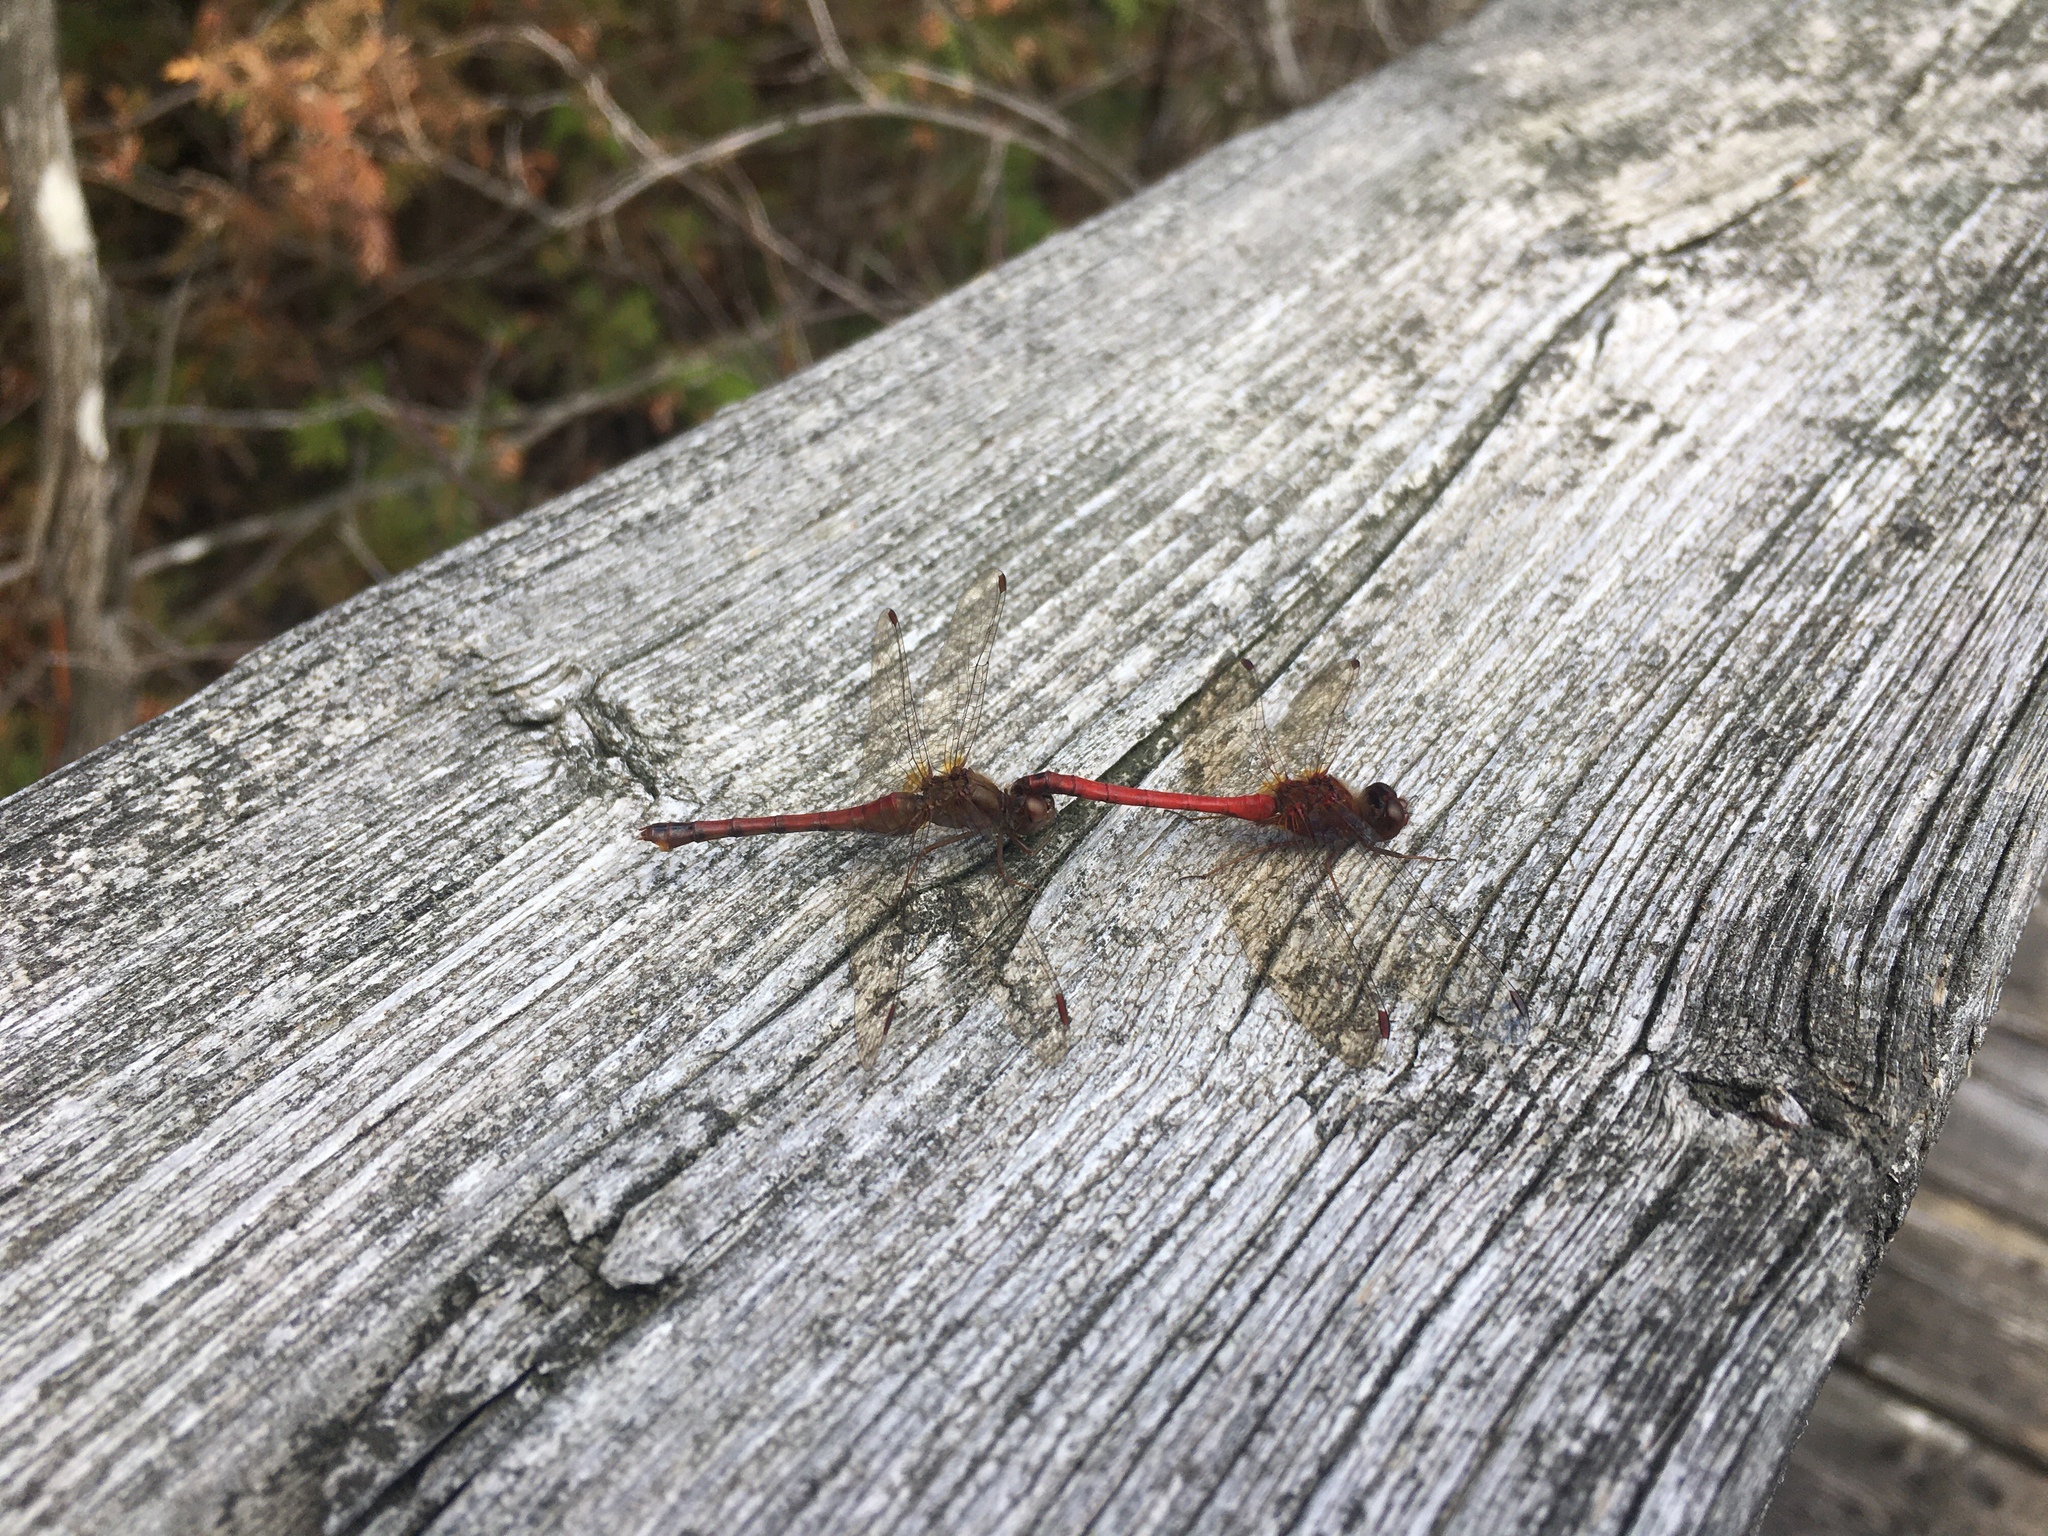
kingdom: Animalia
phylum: Arthropoda
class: Insecta
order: Odonata
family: Libellulidae
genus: Sympetrum
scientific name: Sympetrum vicinum
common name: Autumn meadowhawk
